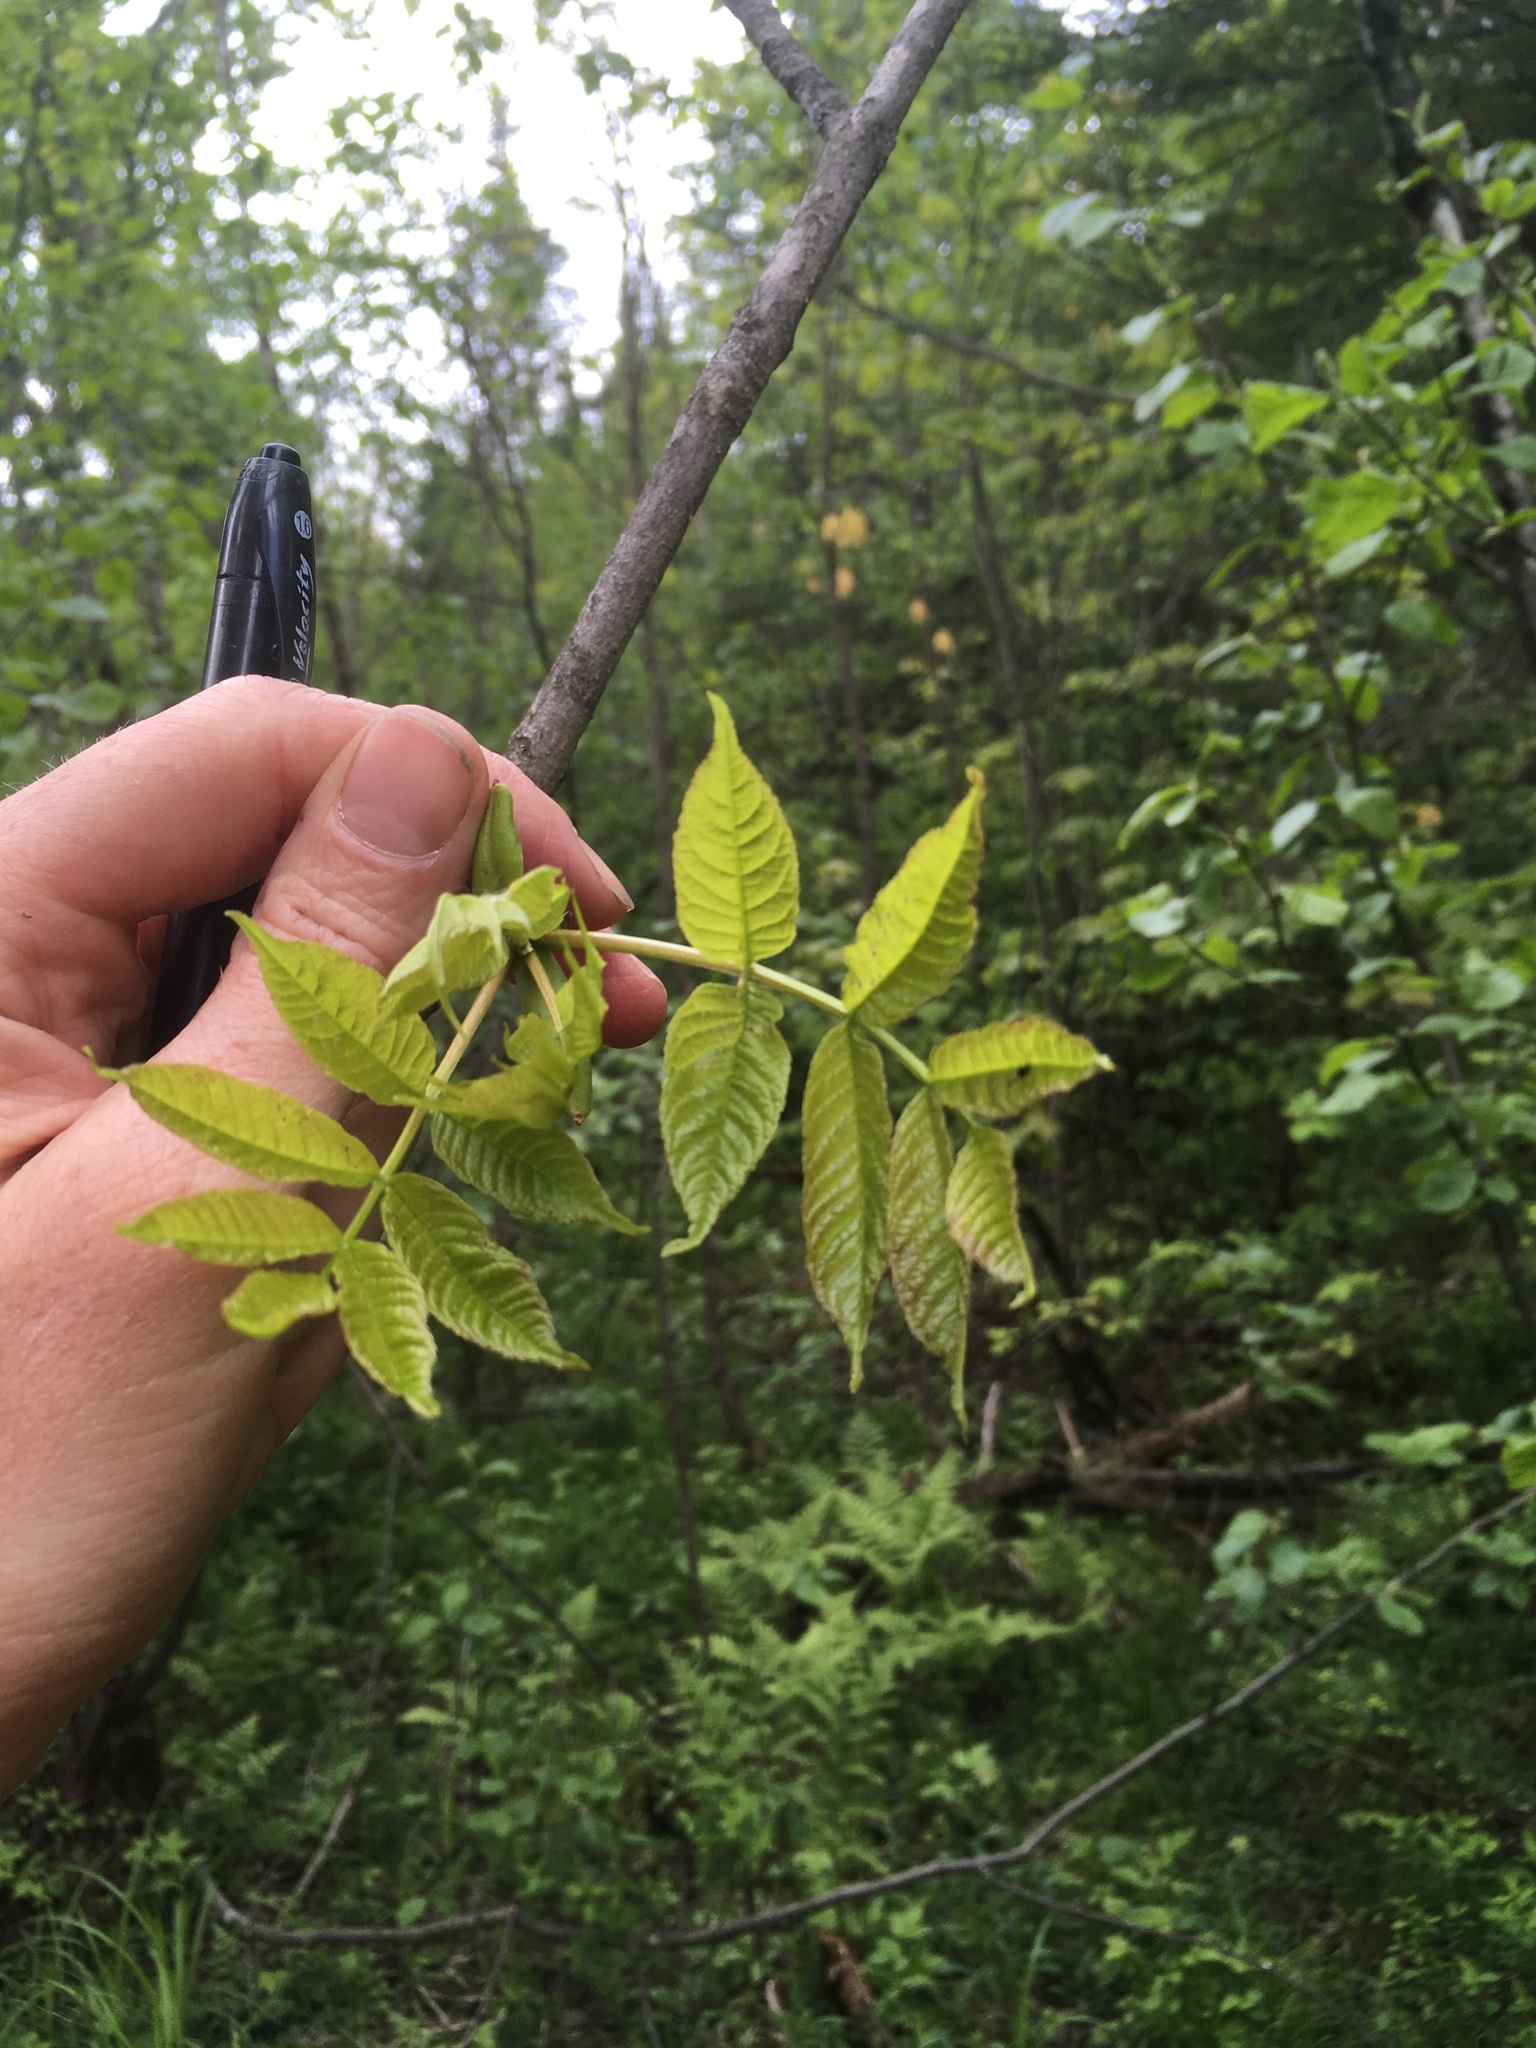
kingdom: Plantae
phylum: Tracheophyta
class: Magnoliopsida
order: Lamiales
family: Oleaceae
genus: Fraxinus
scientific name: Fraxinus nigra
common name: Black ash
